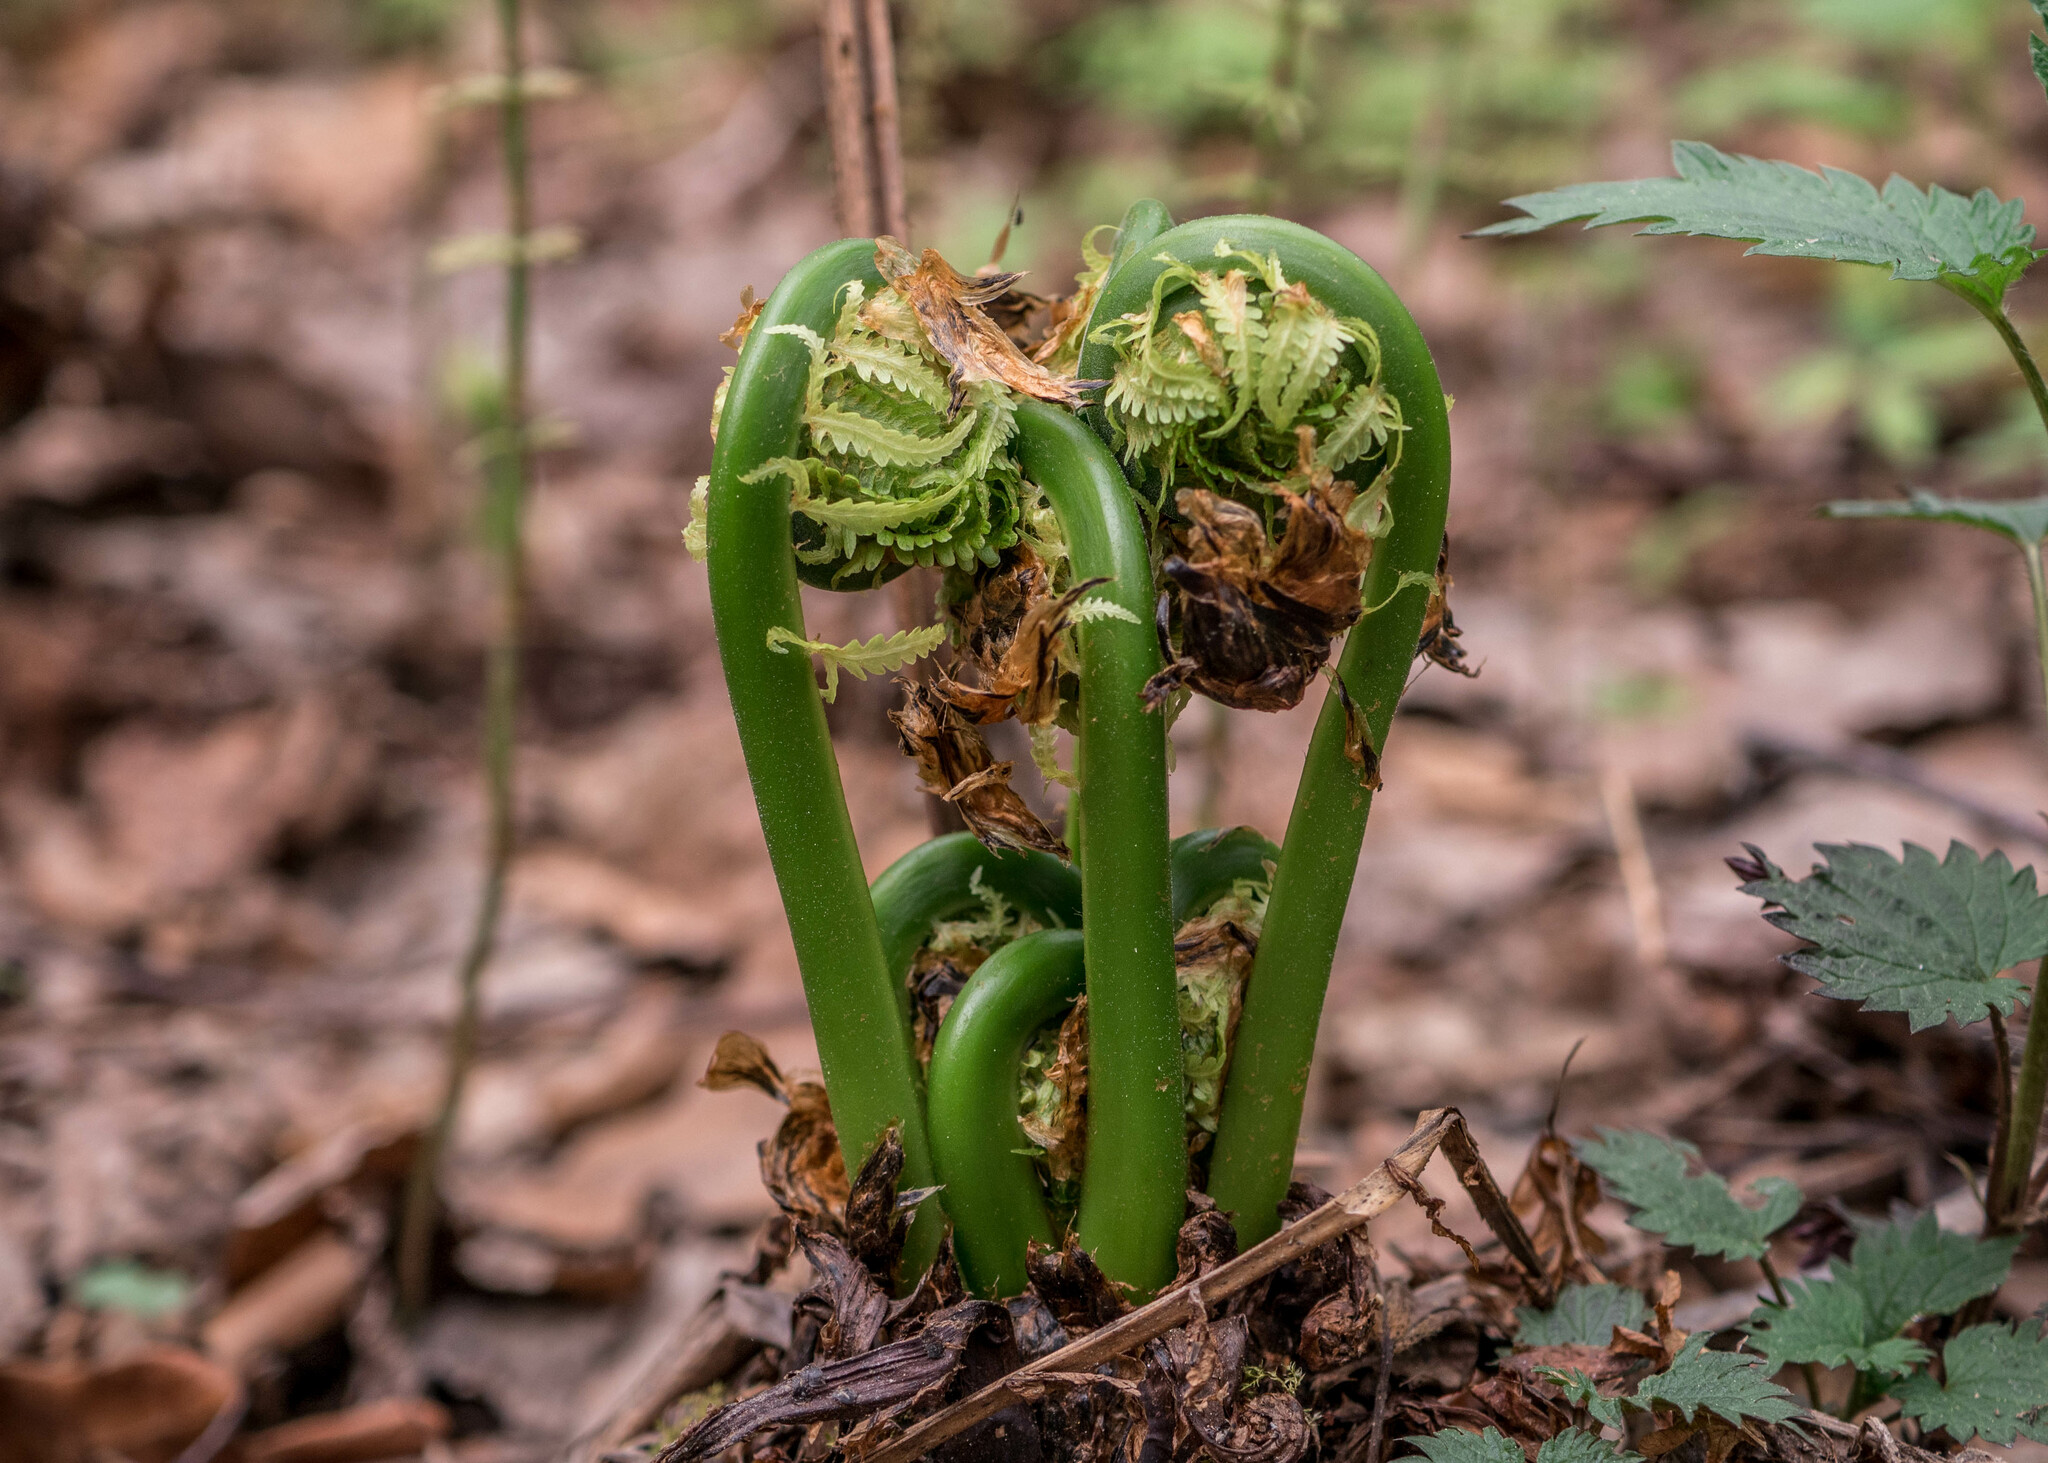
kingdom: Plantae
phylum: Tracheophyta
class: Polypodiopsida
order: Polypodiales
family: Onocleaceae
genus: Matteuccia
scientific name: Matteuccia struthiopteris
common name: Ostrich fern
